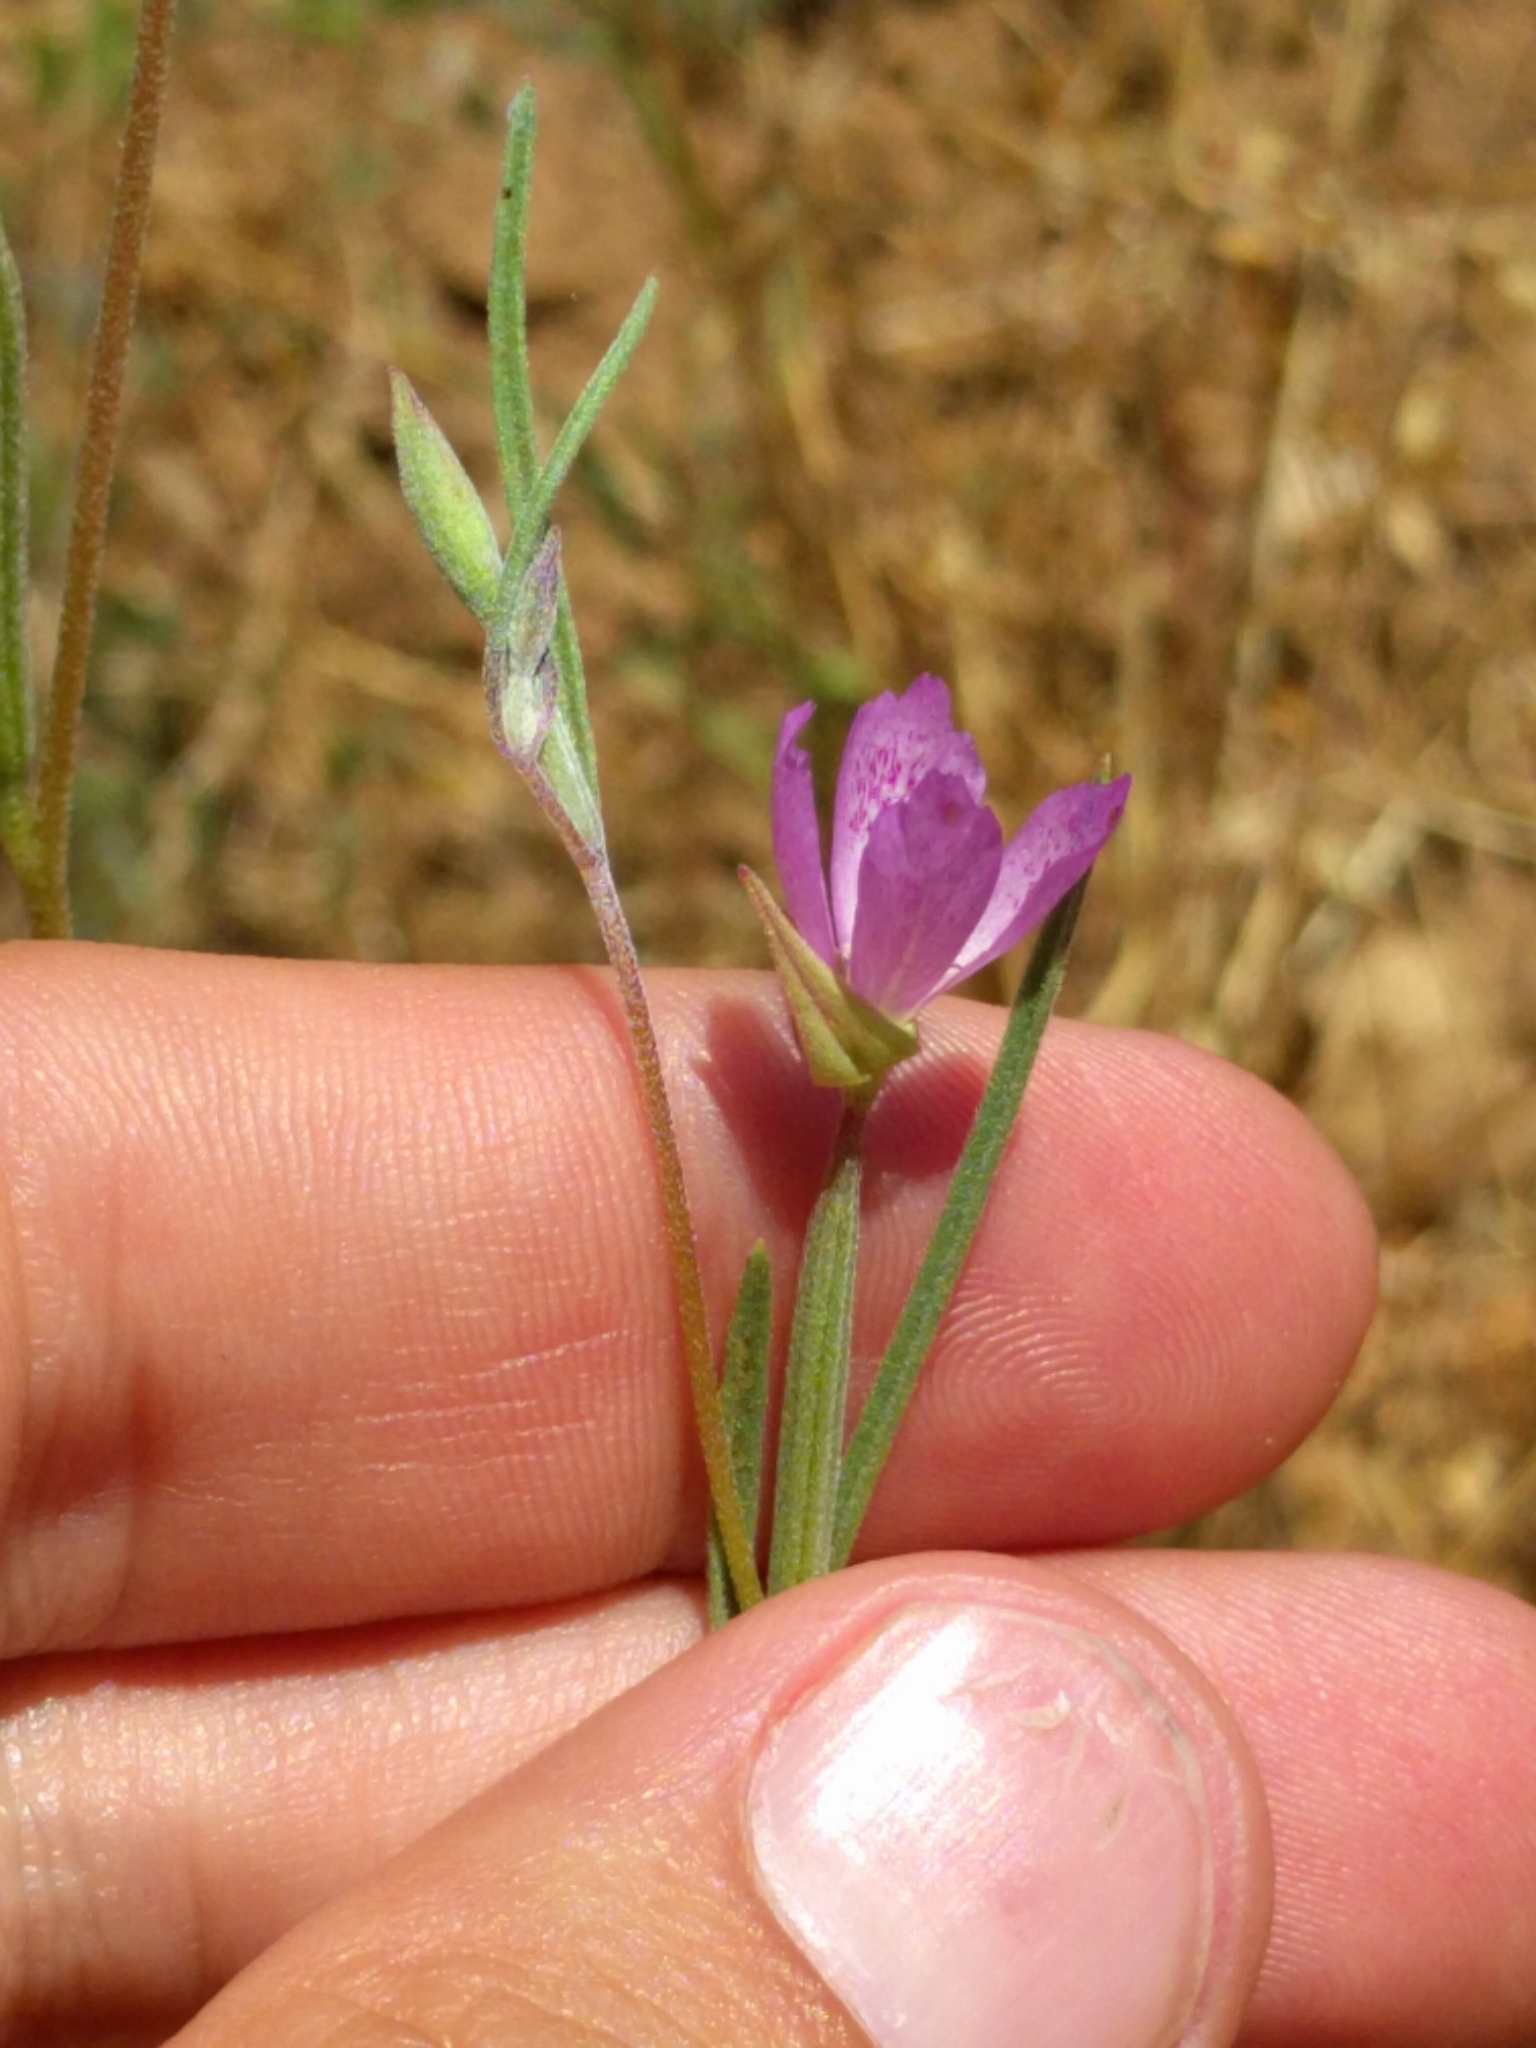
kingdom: Plantae
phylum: Tracheophyta
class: Magnoliopsida
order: Myrtales
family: Onagraceae
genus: Clarkia
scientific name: Clarkia affinis
